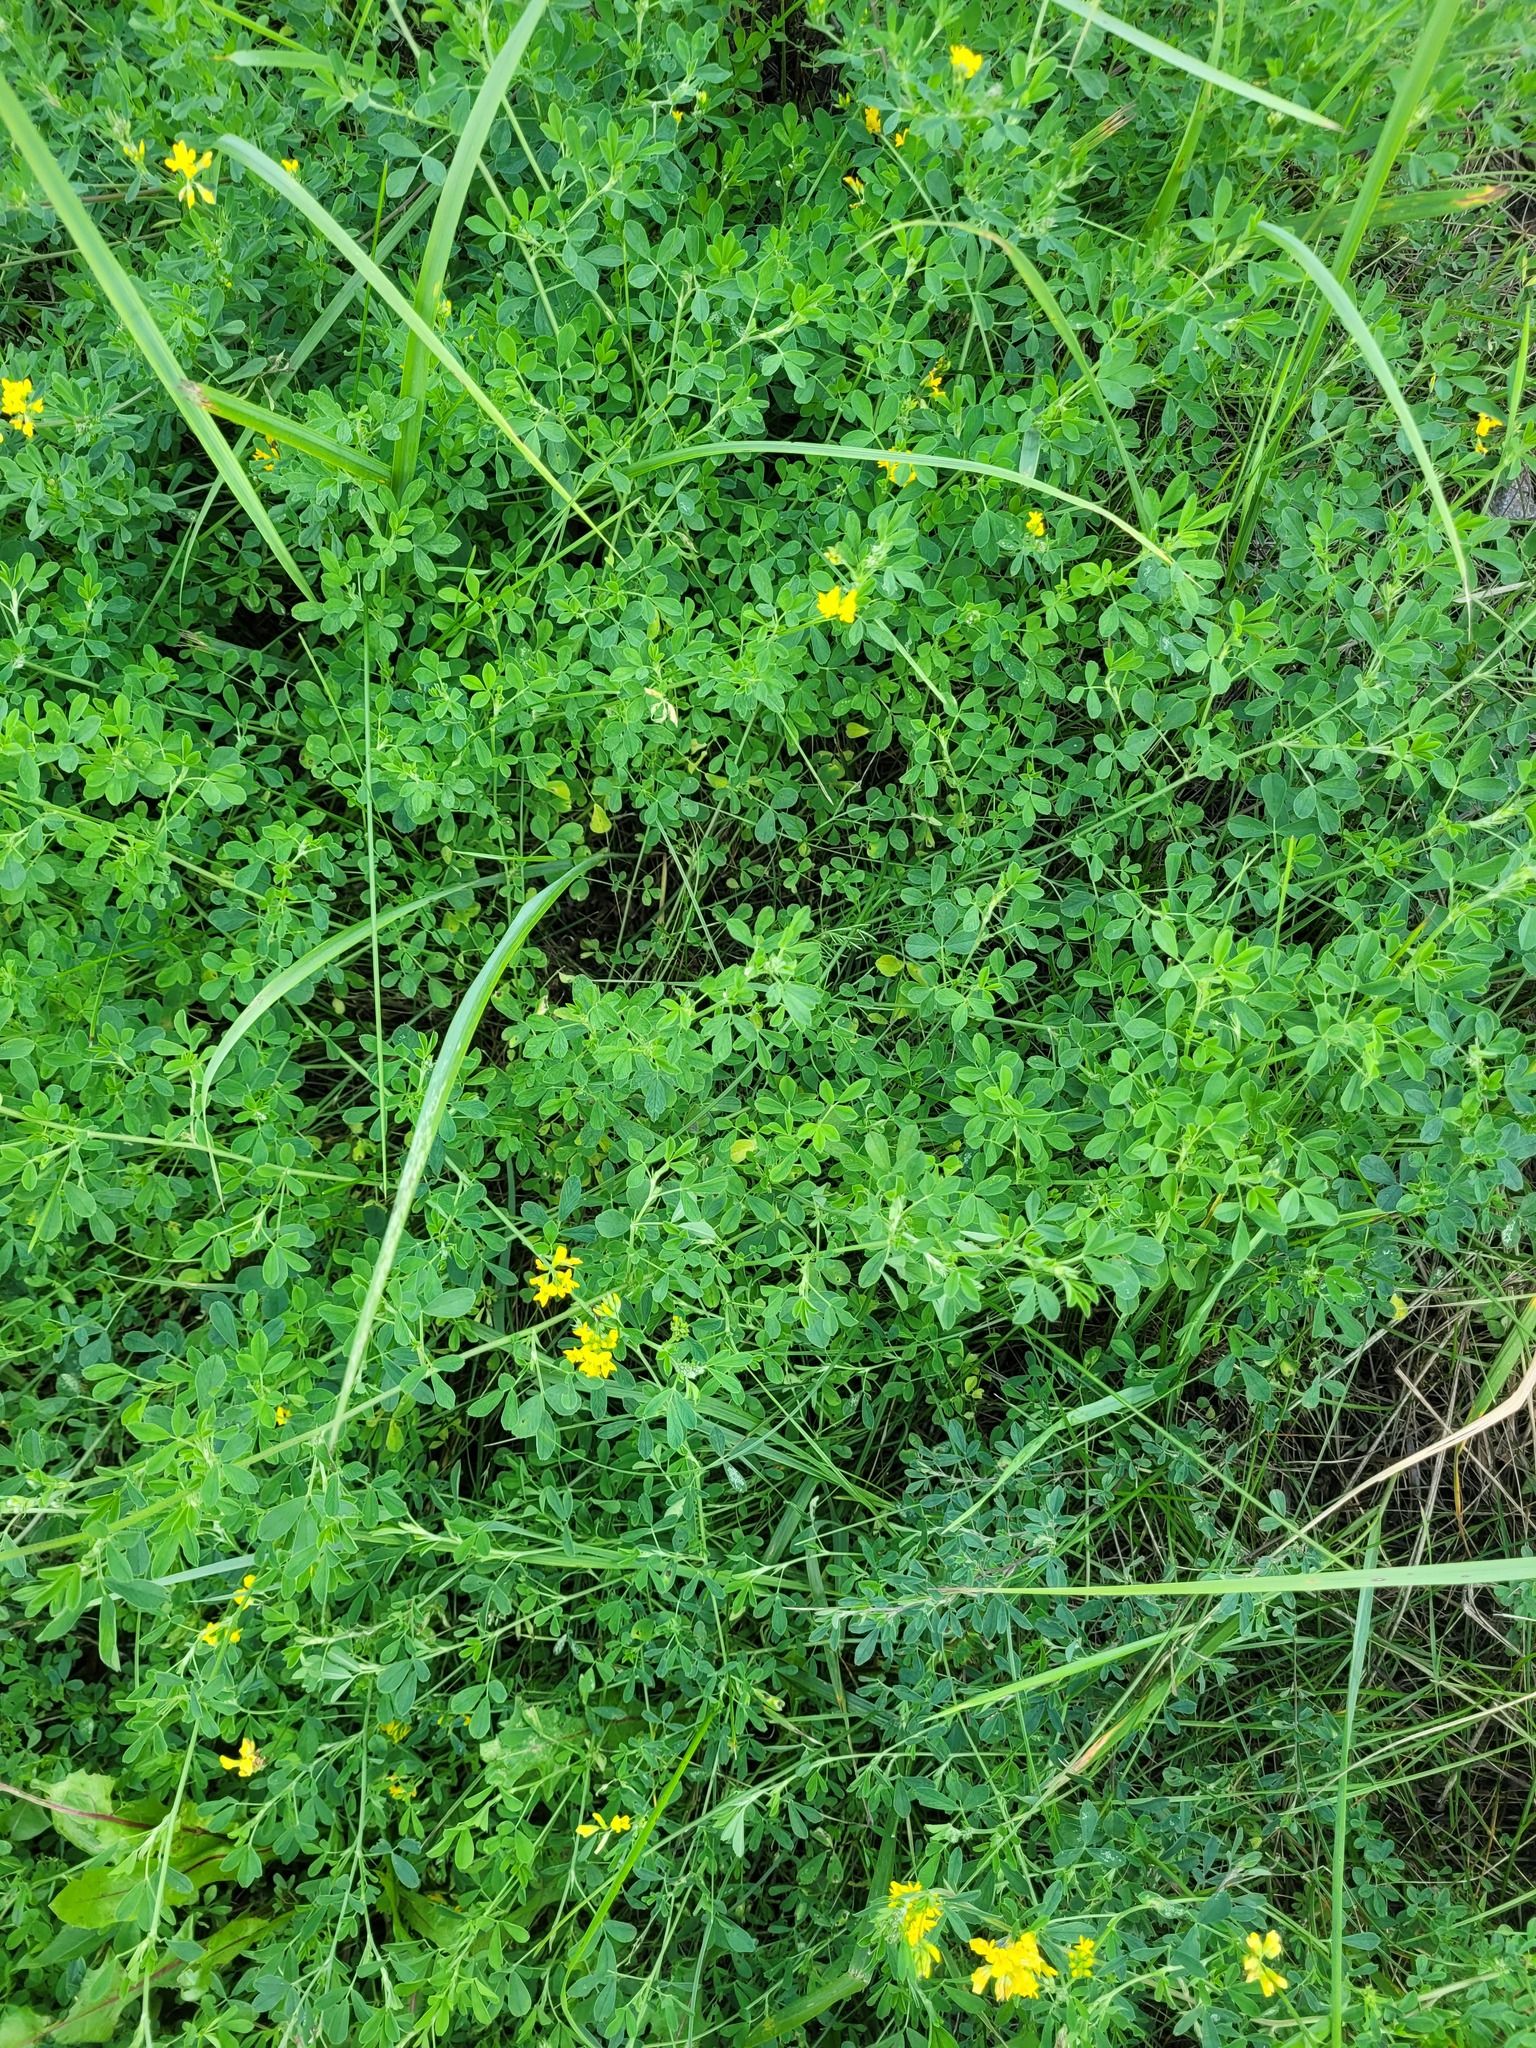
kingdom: Plantae
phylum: Tracheophyta
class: Magnoliopsida
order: Fabales
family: Fabaceae
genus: Medicago
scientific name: Medicago falcata
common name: Sickle medick
